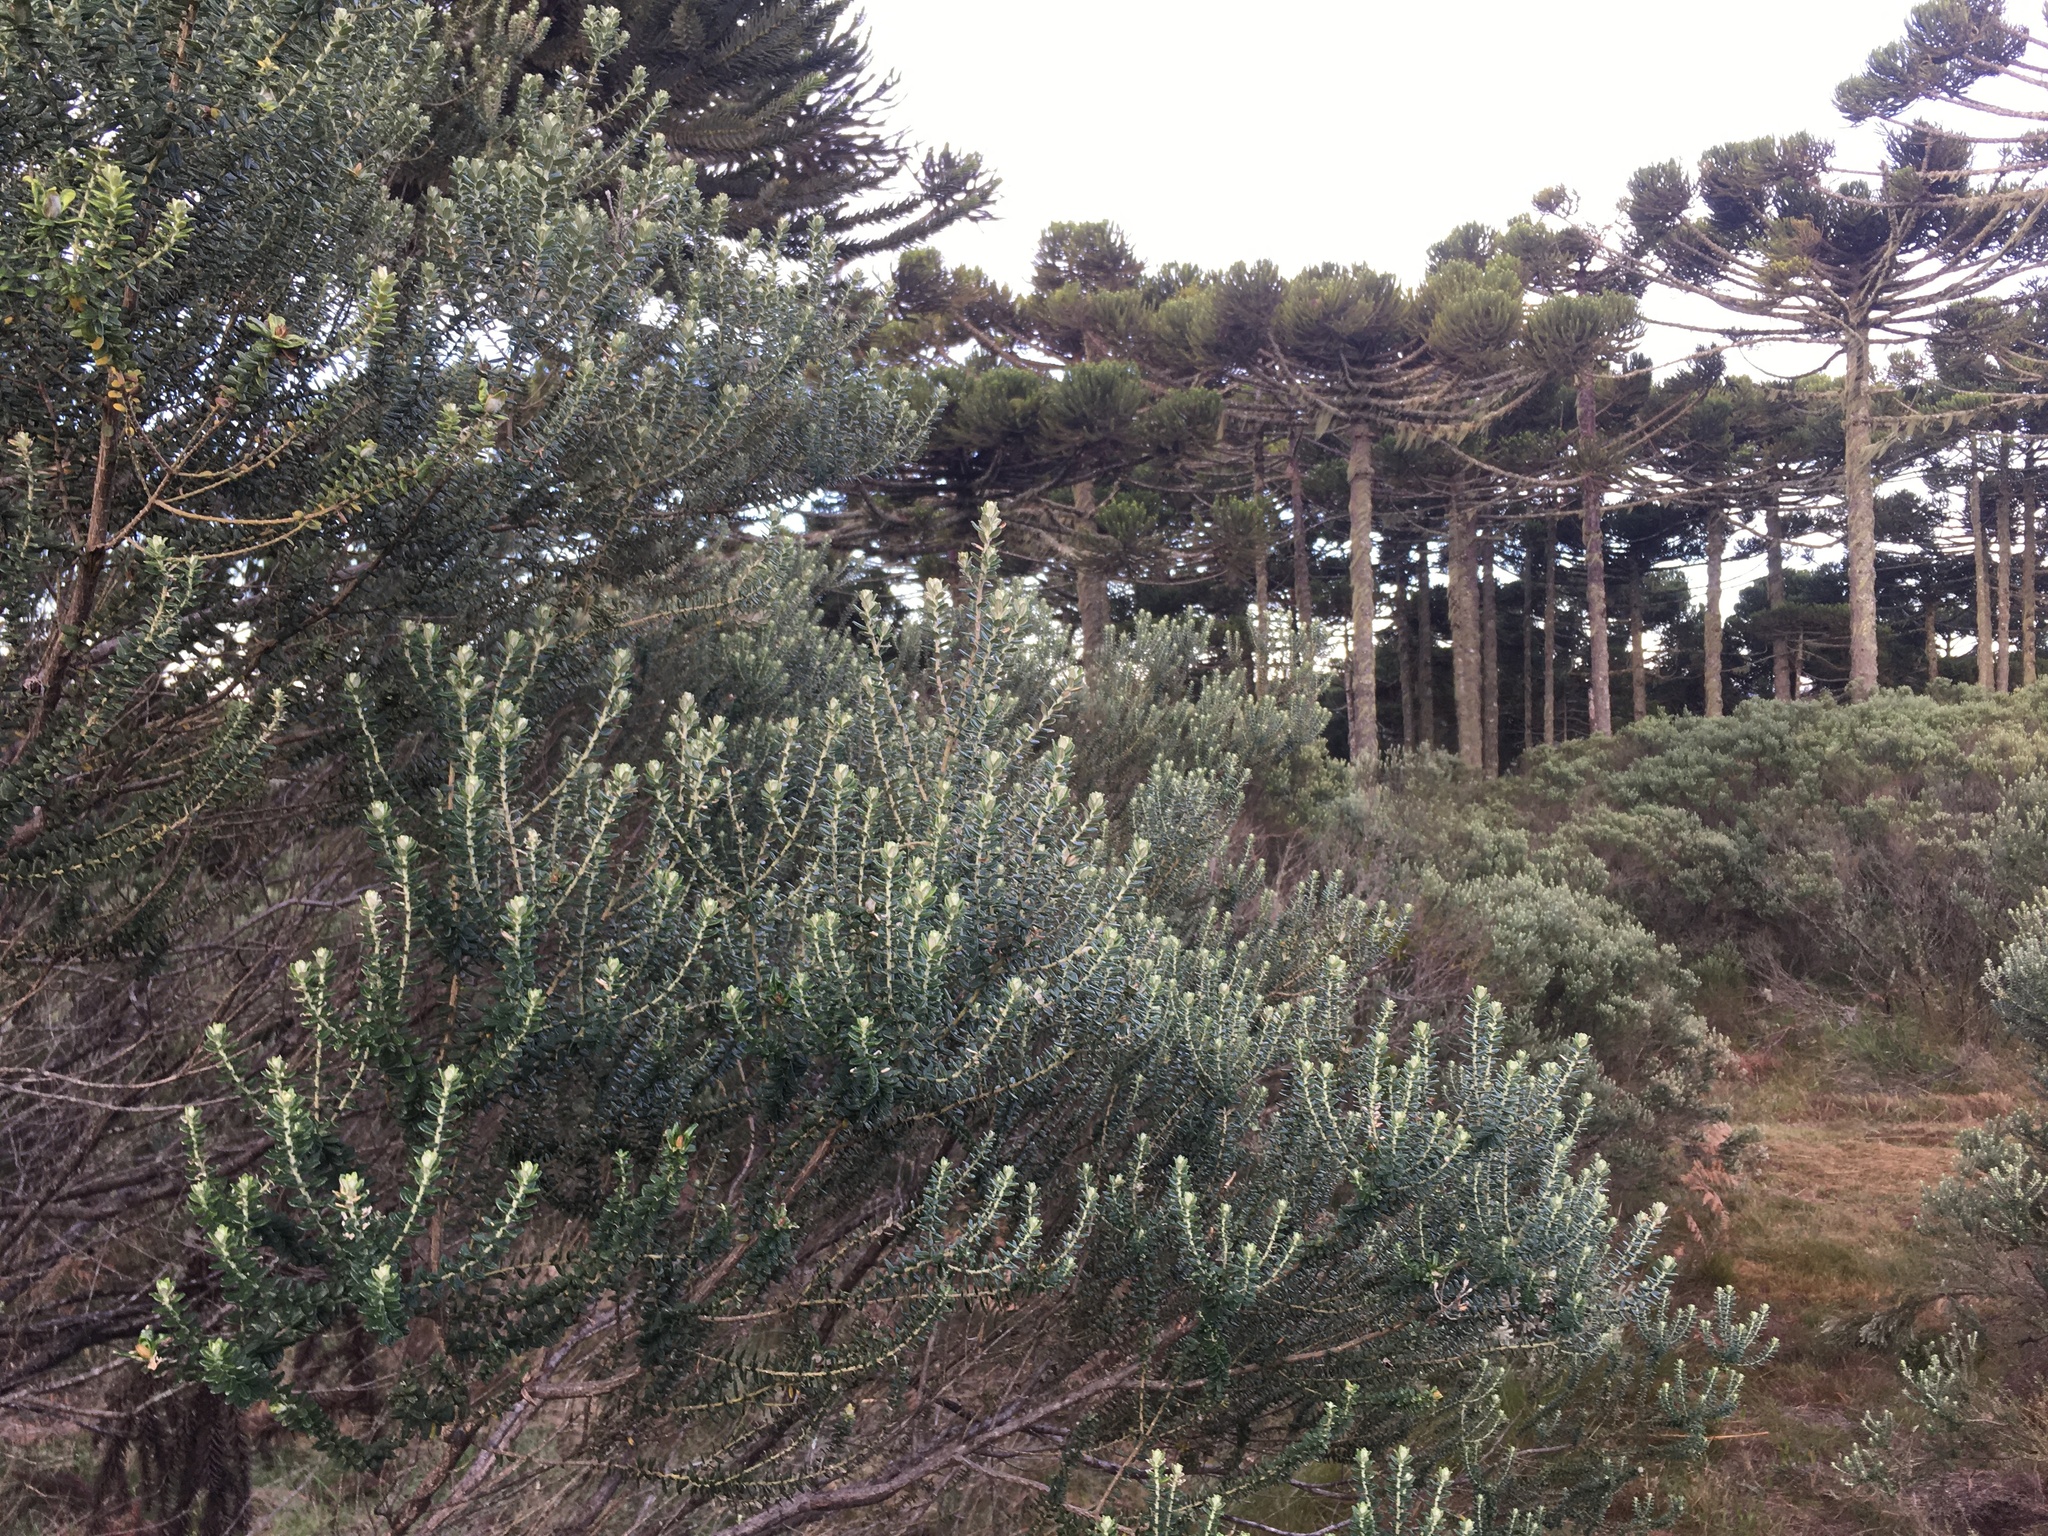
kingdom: Plantae
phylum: Tracheophyta
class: Magnoliopsida
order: Asterales
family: Asteraceae
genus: Baccharis
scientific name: Baccharis uncinella
